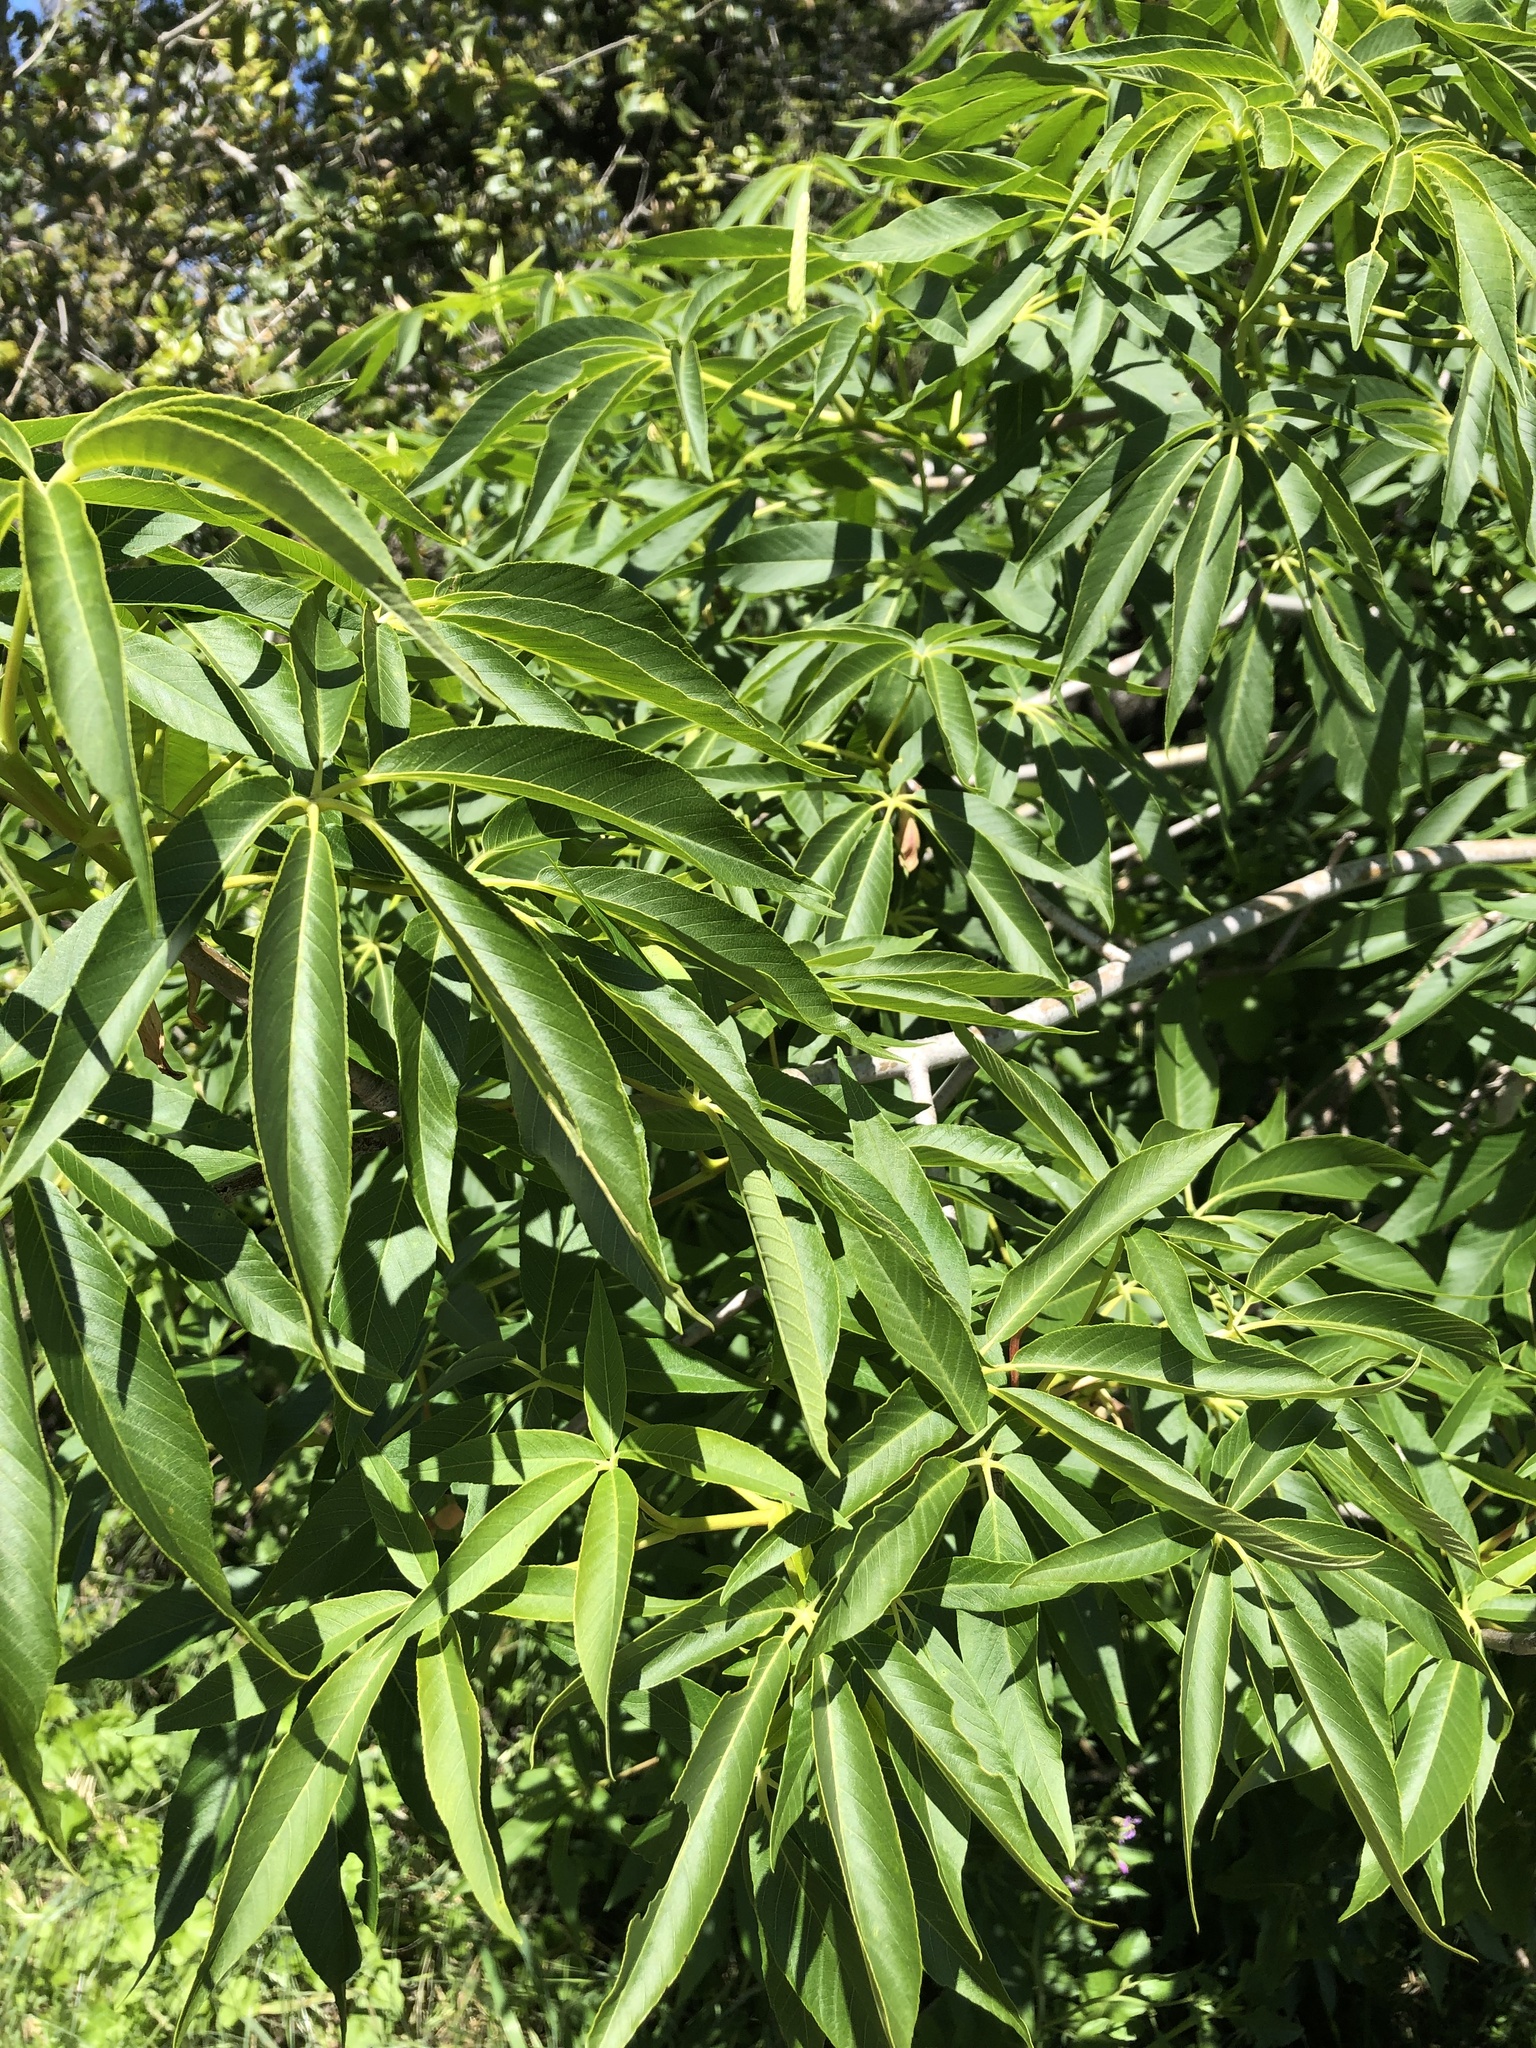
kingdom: Plantae
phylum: Tracheophyta
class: Magnoliopsida
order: Sapindales
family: Sapindaceae
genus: Aesculus
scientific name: Aesculus californica
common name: California buckeye
